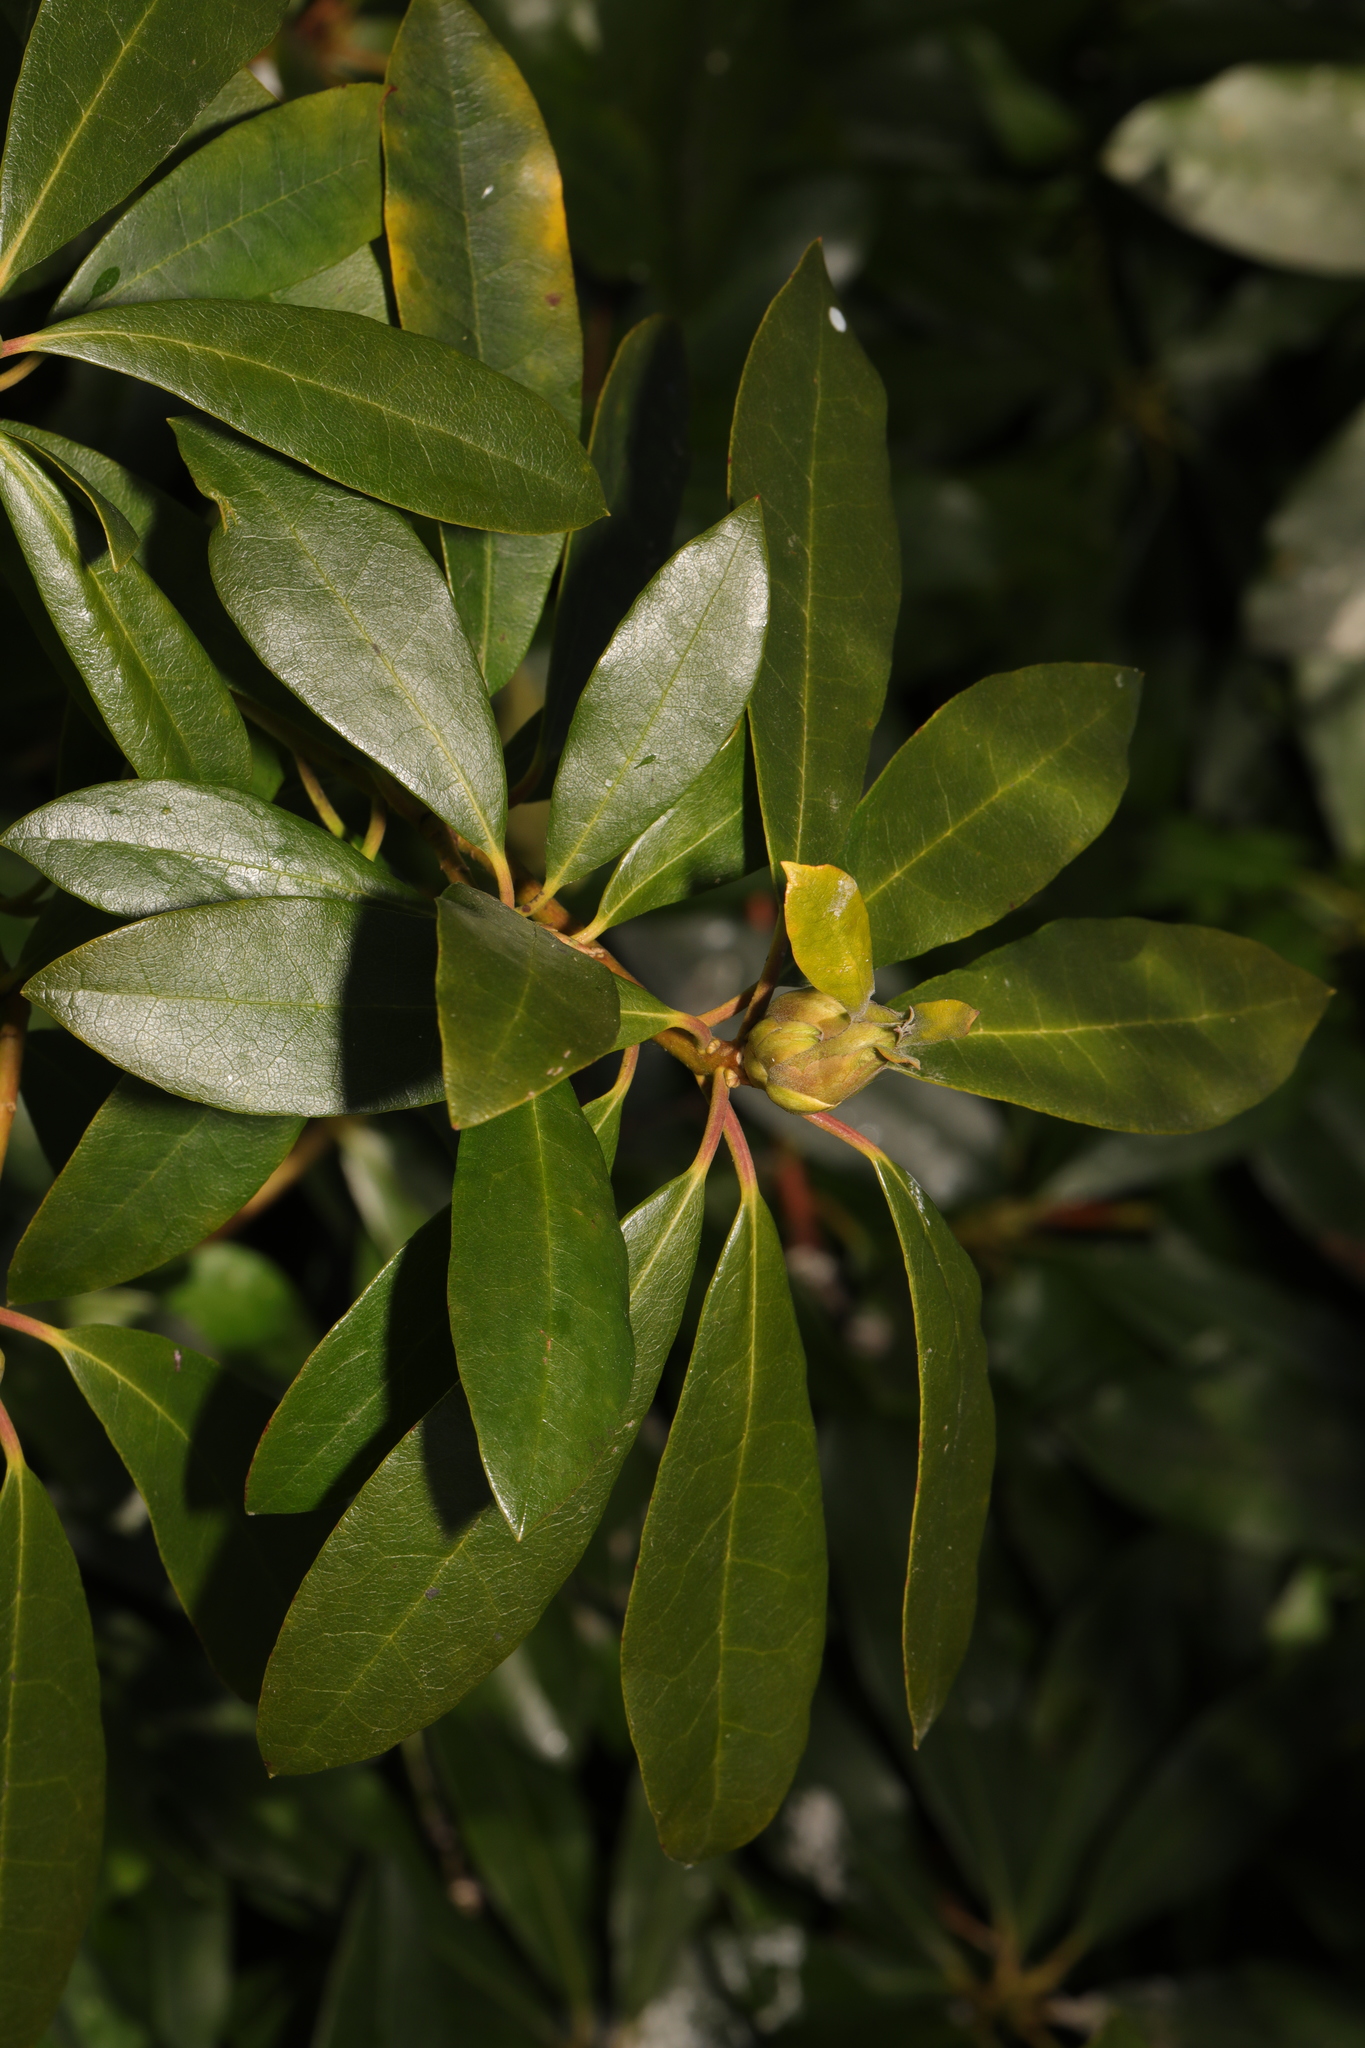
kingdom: Plantae
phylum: Tracheophyta
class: Magnoliopsida
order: Ericales
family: Ericaceae
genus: Rhododendron
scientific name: Rhododendron ponticum
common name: Rhododendron
